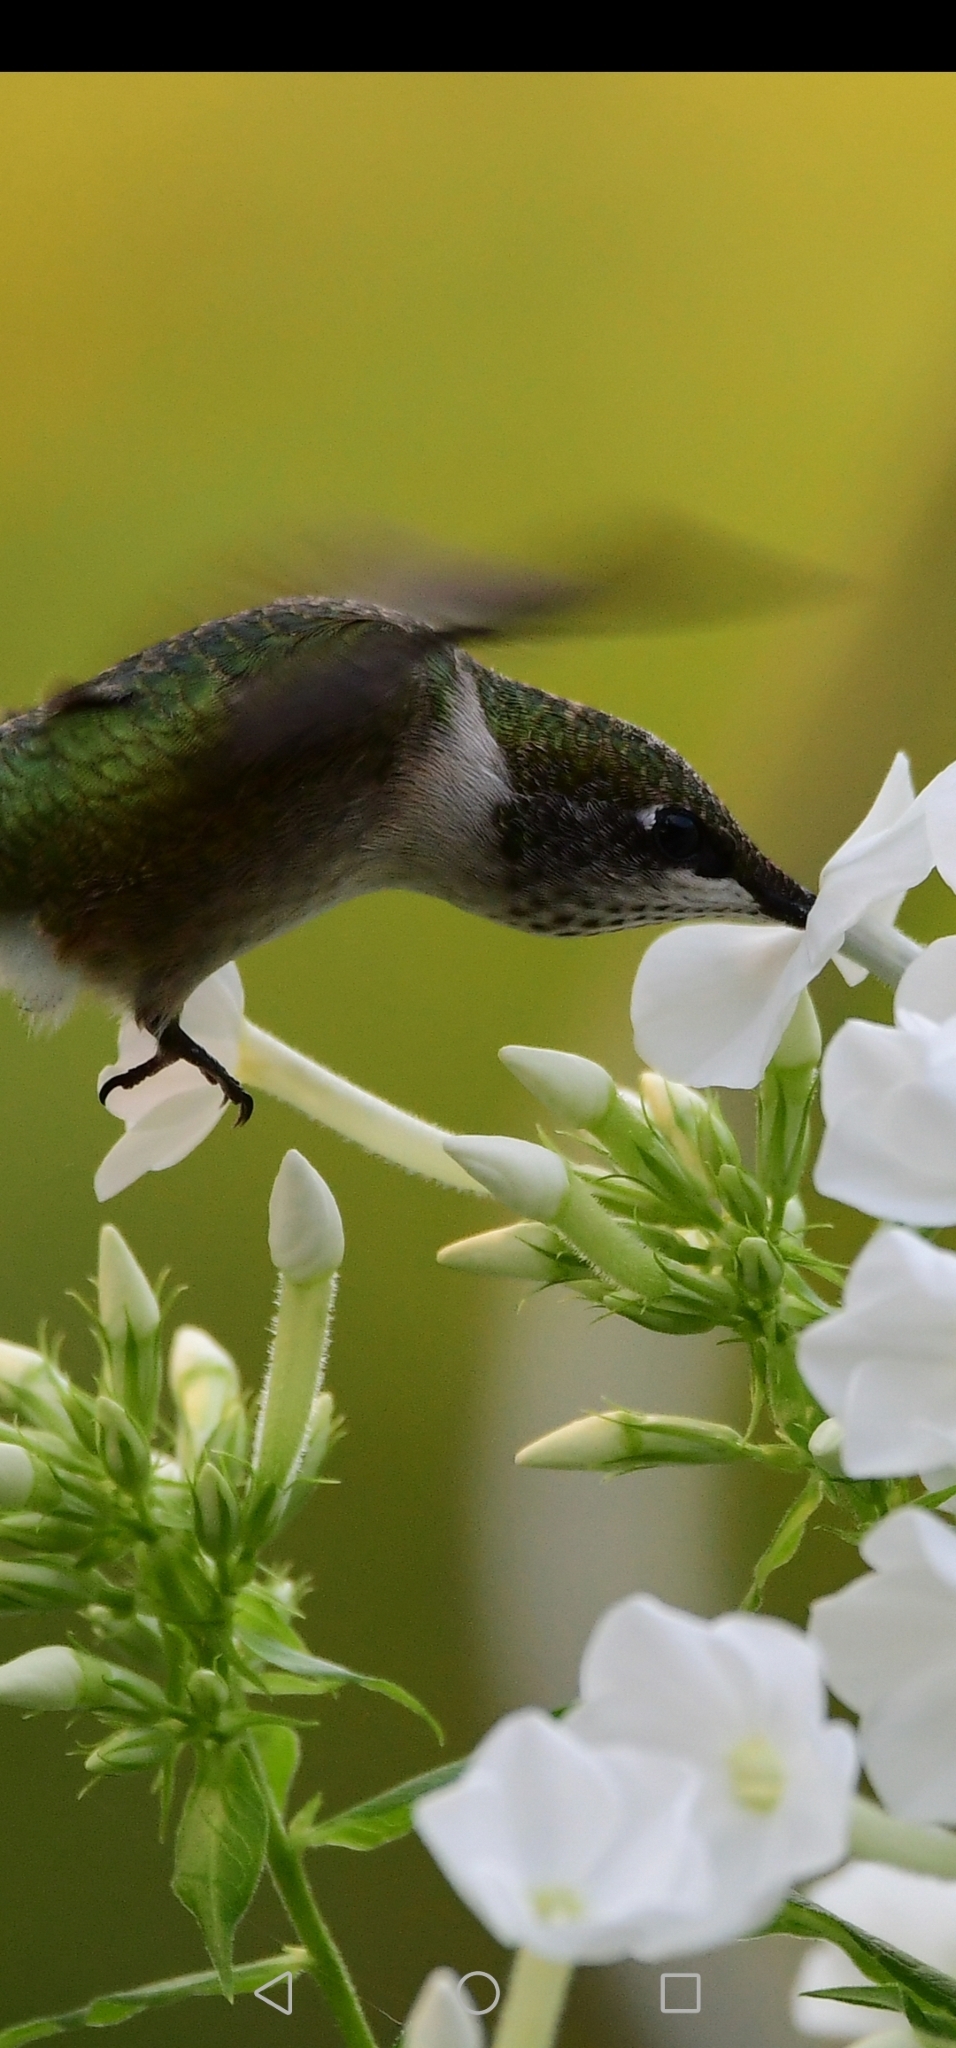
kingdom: Animalia
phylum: Chordata
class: Aves
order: Apodiformes
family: Trochilidae
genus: Archilochus
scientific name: Archilochus colubris
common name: Ruby-throated hummingbird
